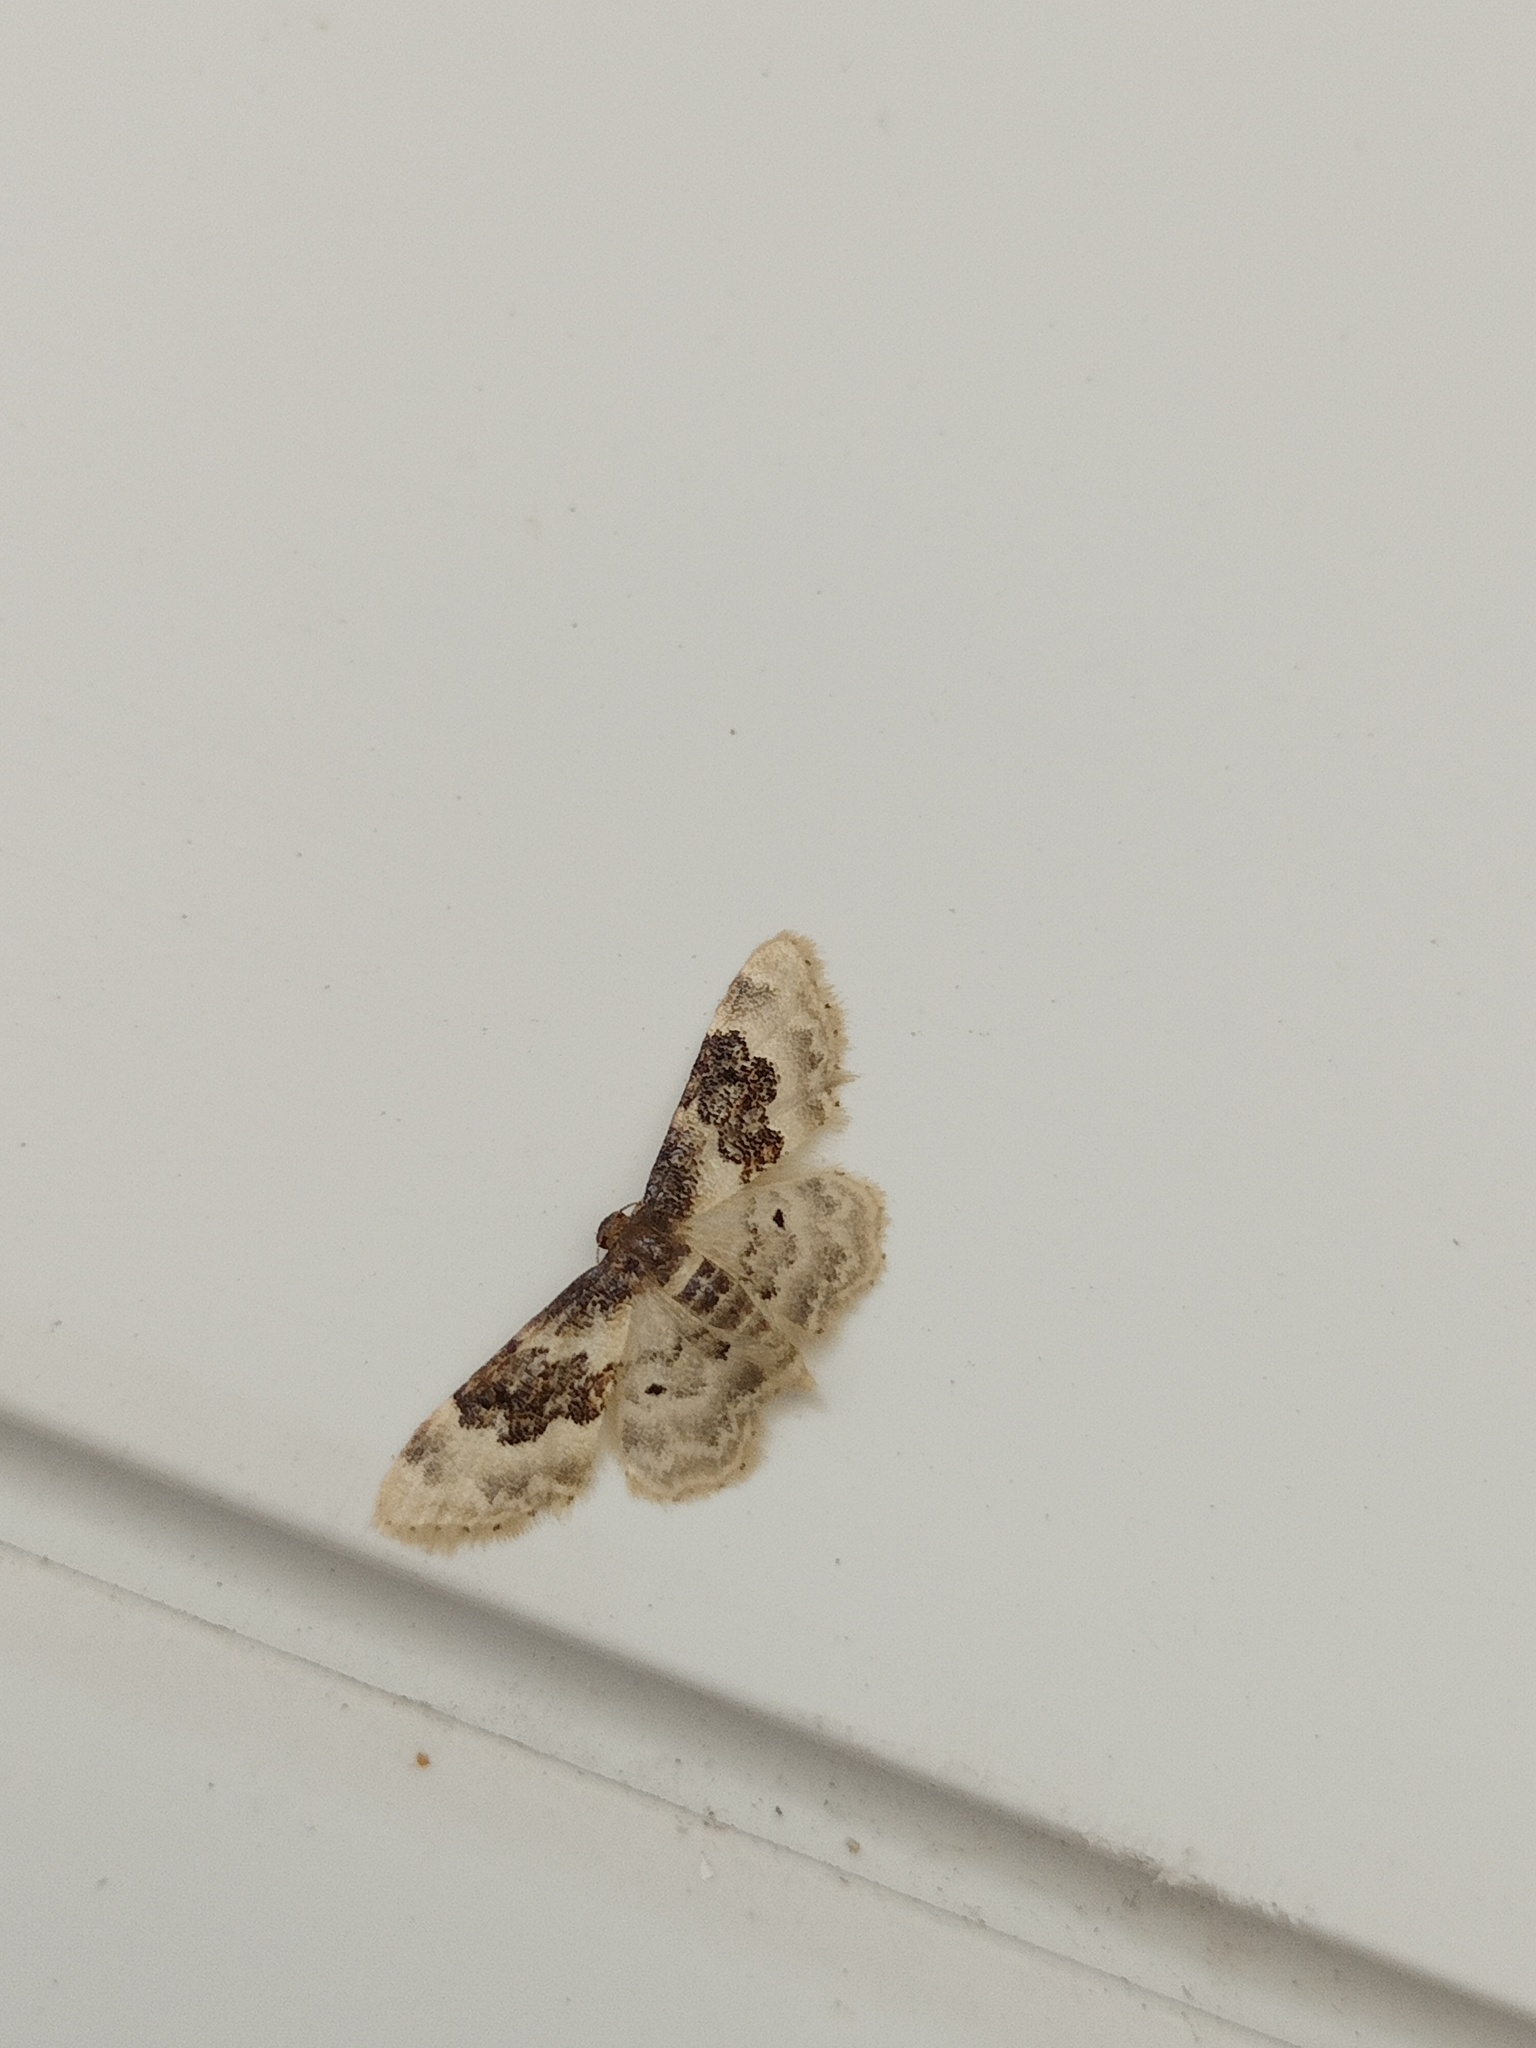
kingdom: Animalia
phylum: Arthropoda
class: Insecta
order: Lepidoptera
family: Geometridae
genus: Idaea
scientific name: Idaea rusticata
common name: Least carpet
